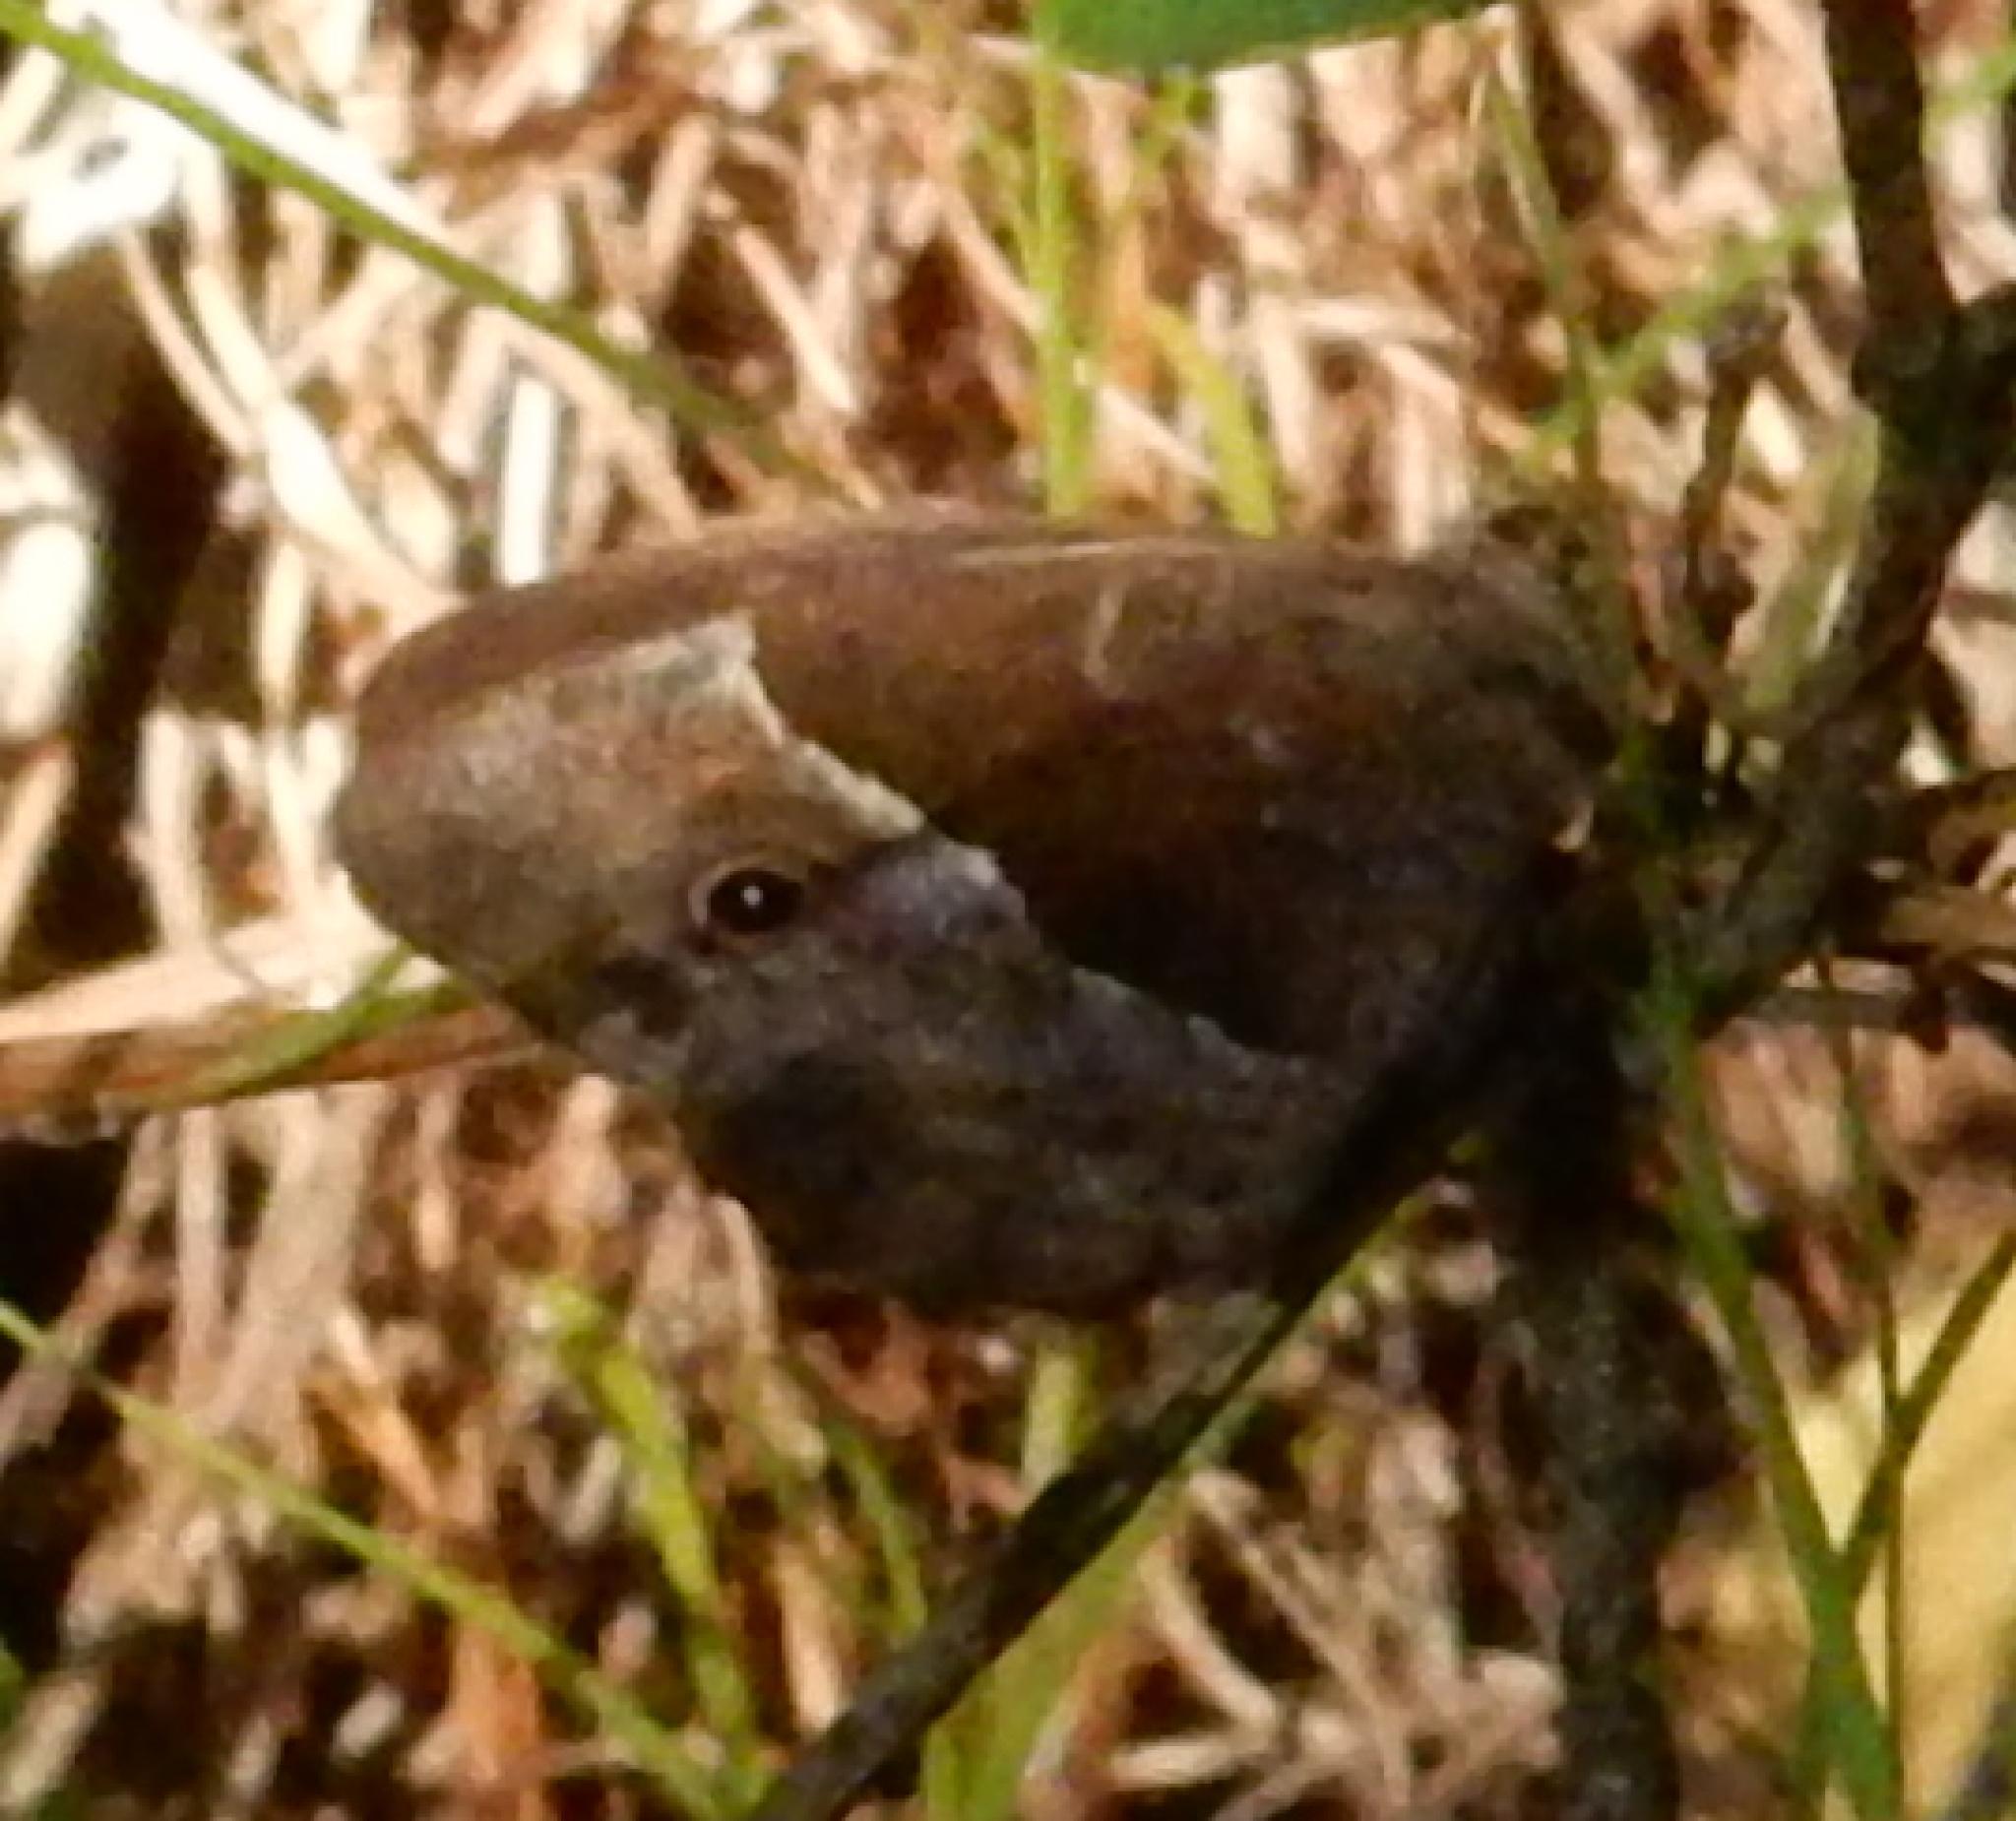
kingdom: Animalia
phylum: Arthropoda
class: Insecta
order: Lepidoptera
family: Nymphalidae
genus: Mycalesis
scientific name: Mycalesis rhacotis
